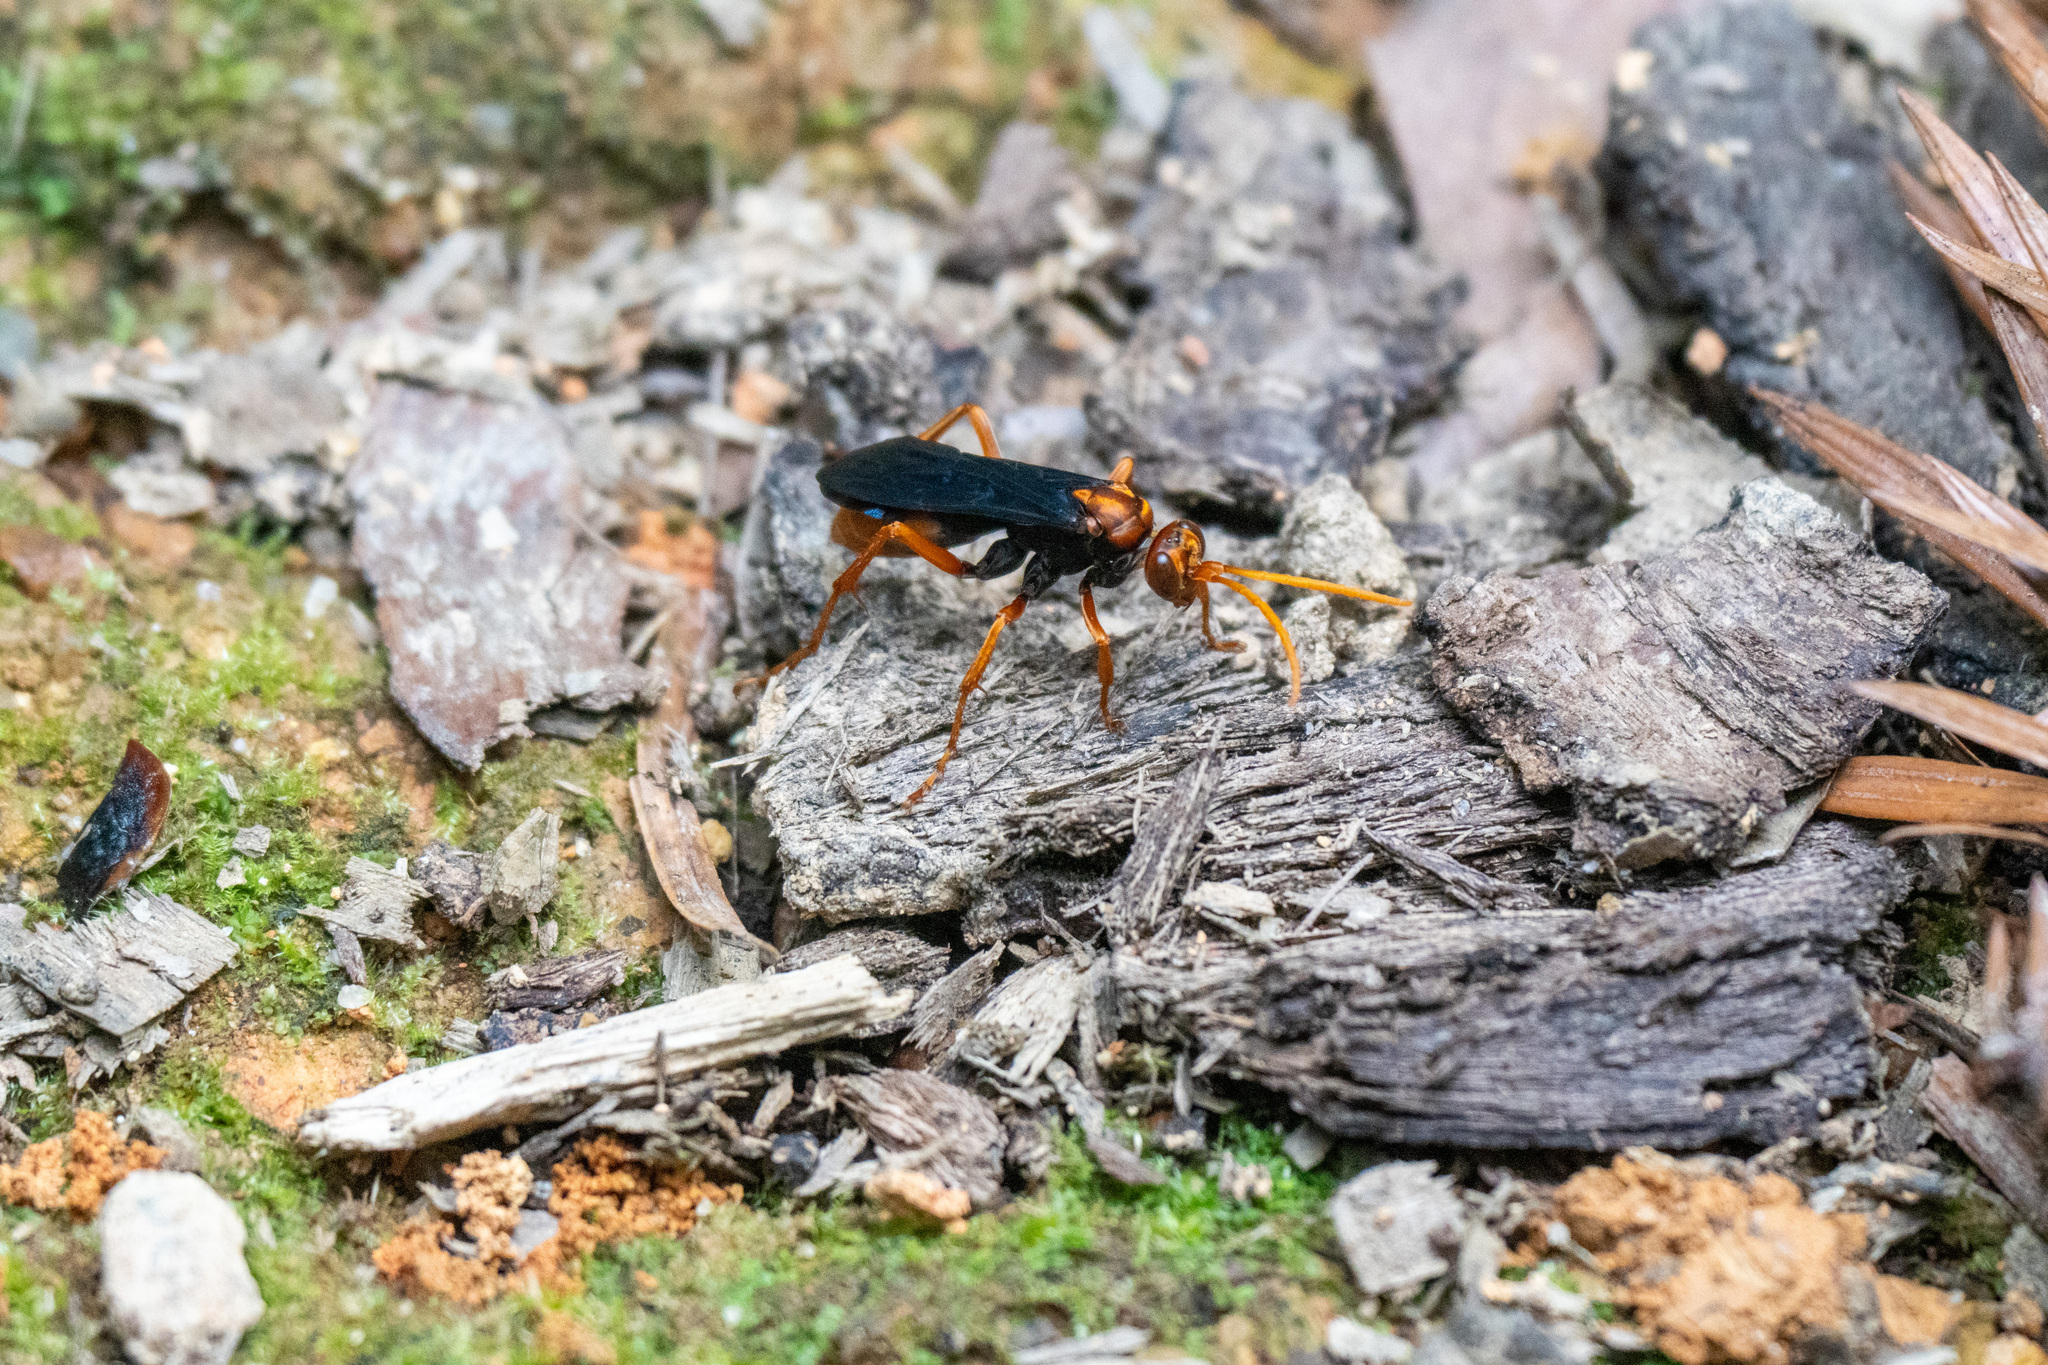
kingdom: Animalia
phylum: Arthropoda
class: Insecta
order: Hymenoptera
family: Pompilidae
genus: Hemipepsis
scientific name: Hemipepsis sogdiana
